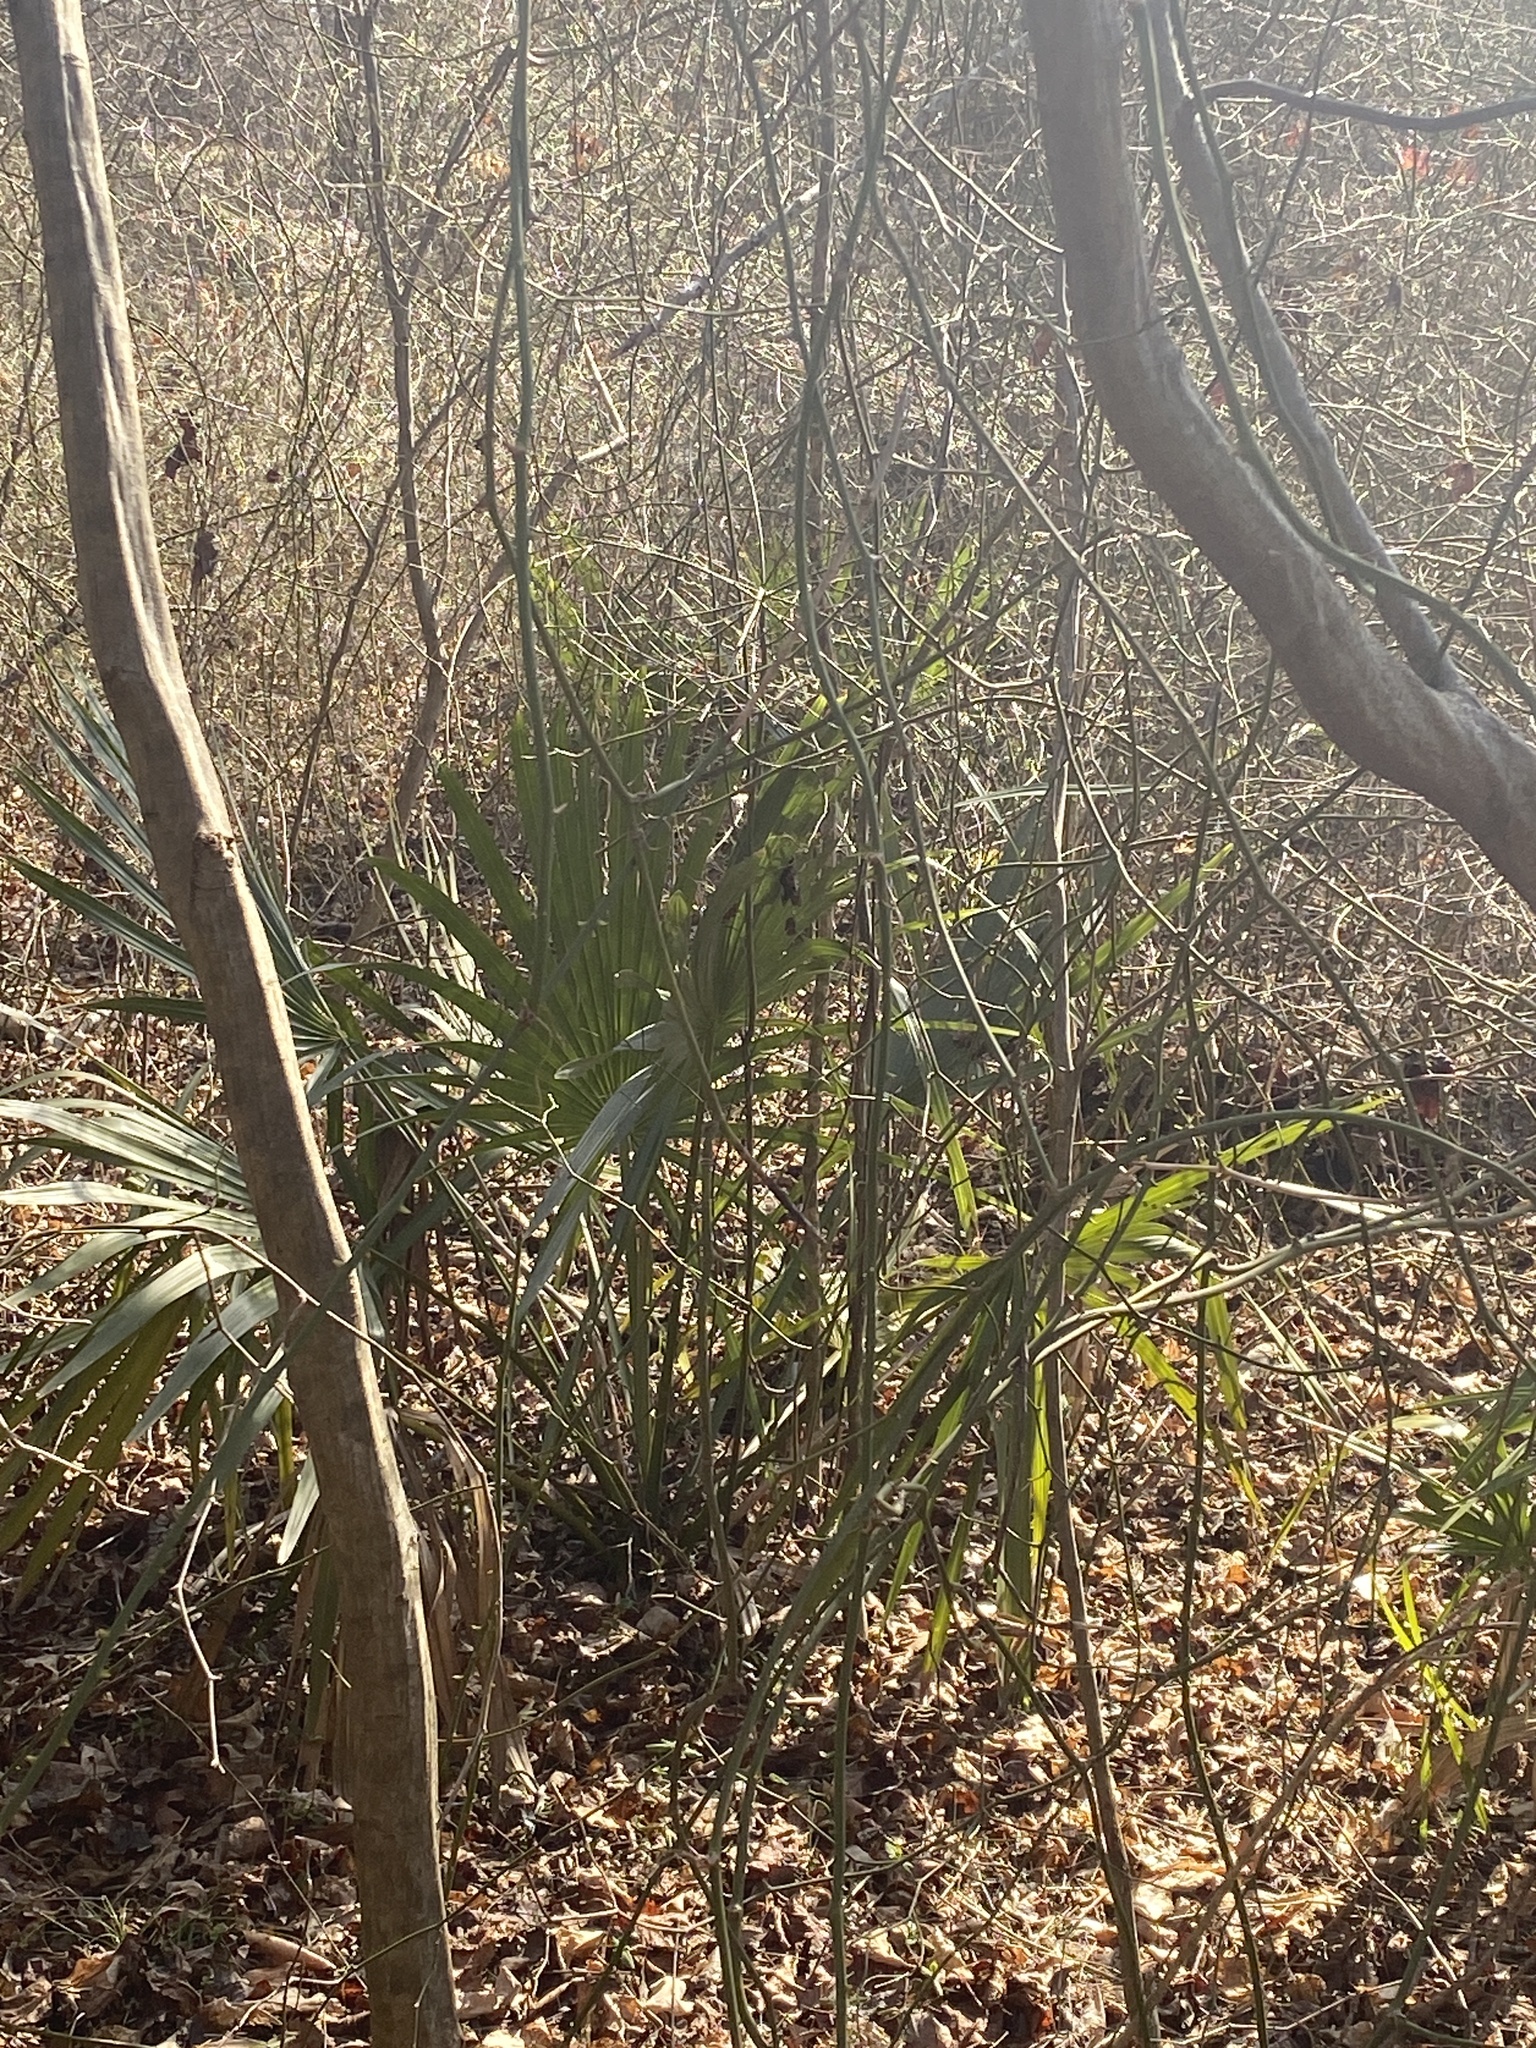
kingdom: Plantae
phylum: Tracheophyta
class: Liliopsida
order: Arecales
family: Arecaceae
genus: Sabal
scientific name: Sabal minor
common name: Dwarf palmetto
